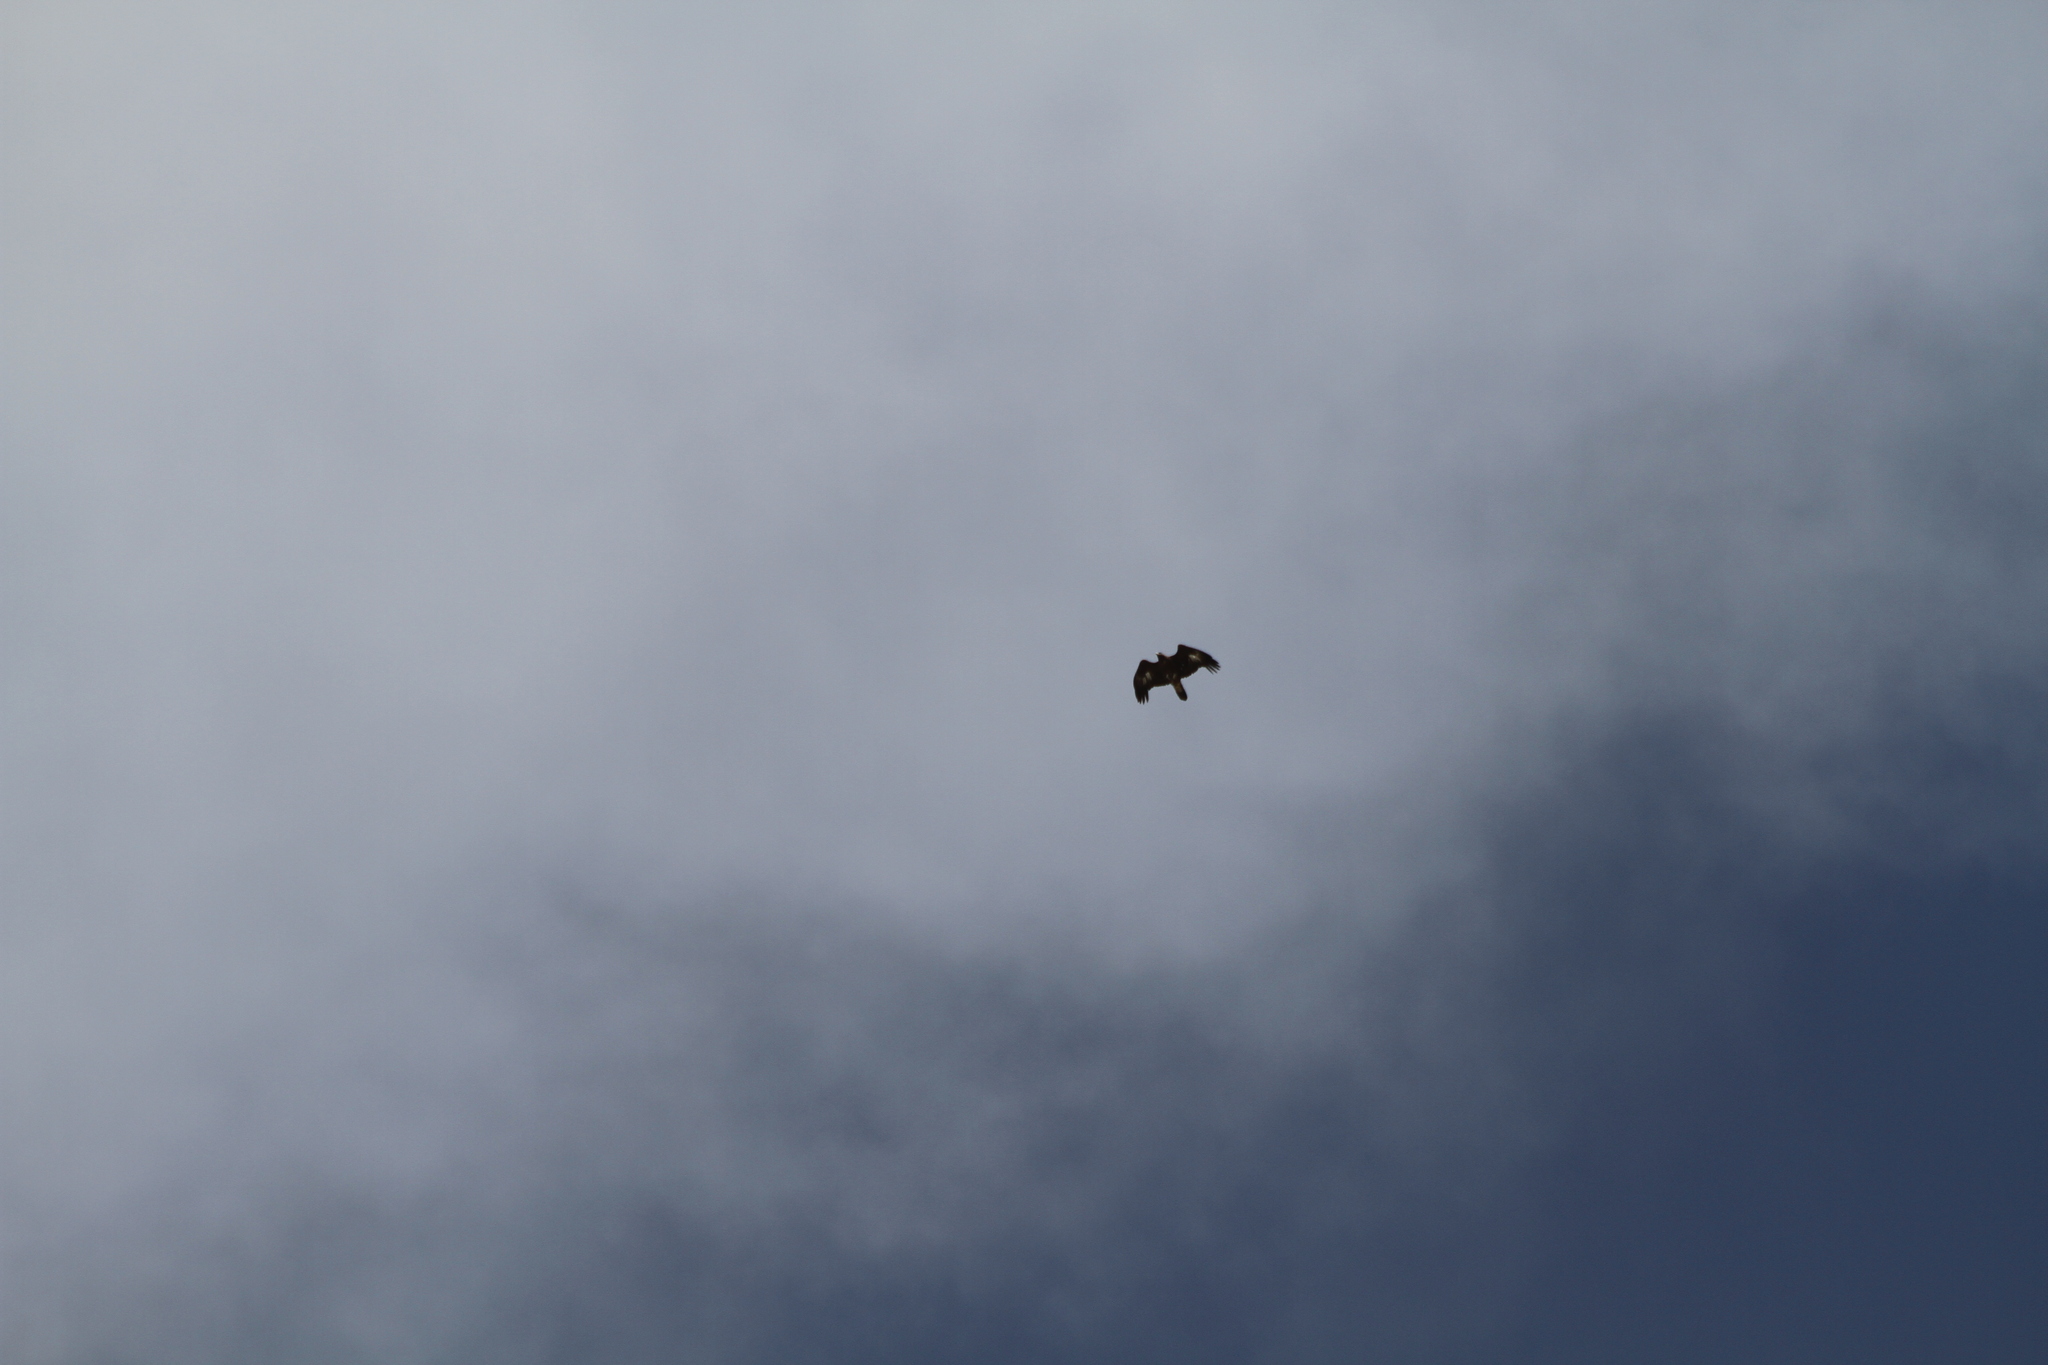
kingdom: Animalia
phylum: Chordata
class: Aves
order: Accipitriformes
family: Accipitridae
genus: Aquila
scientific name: Aquila chrysaetos
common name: Golden eagle
